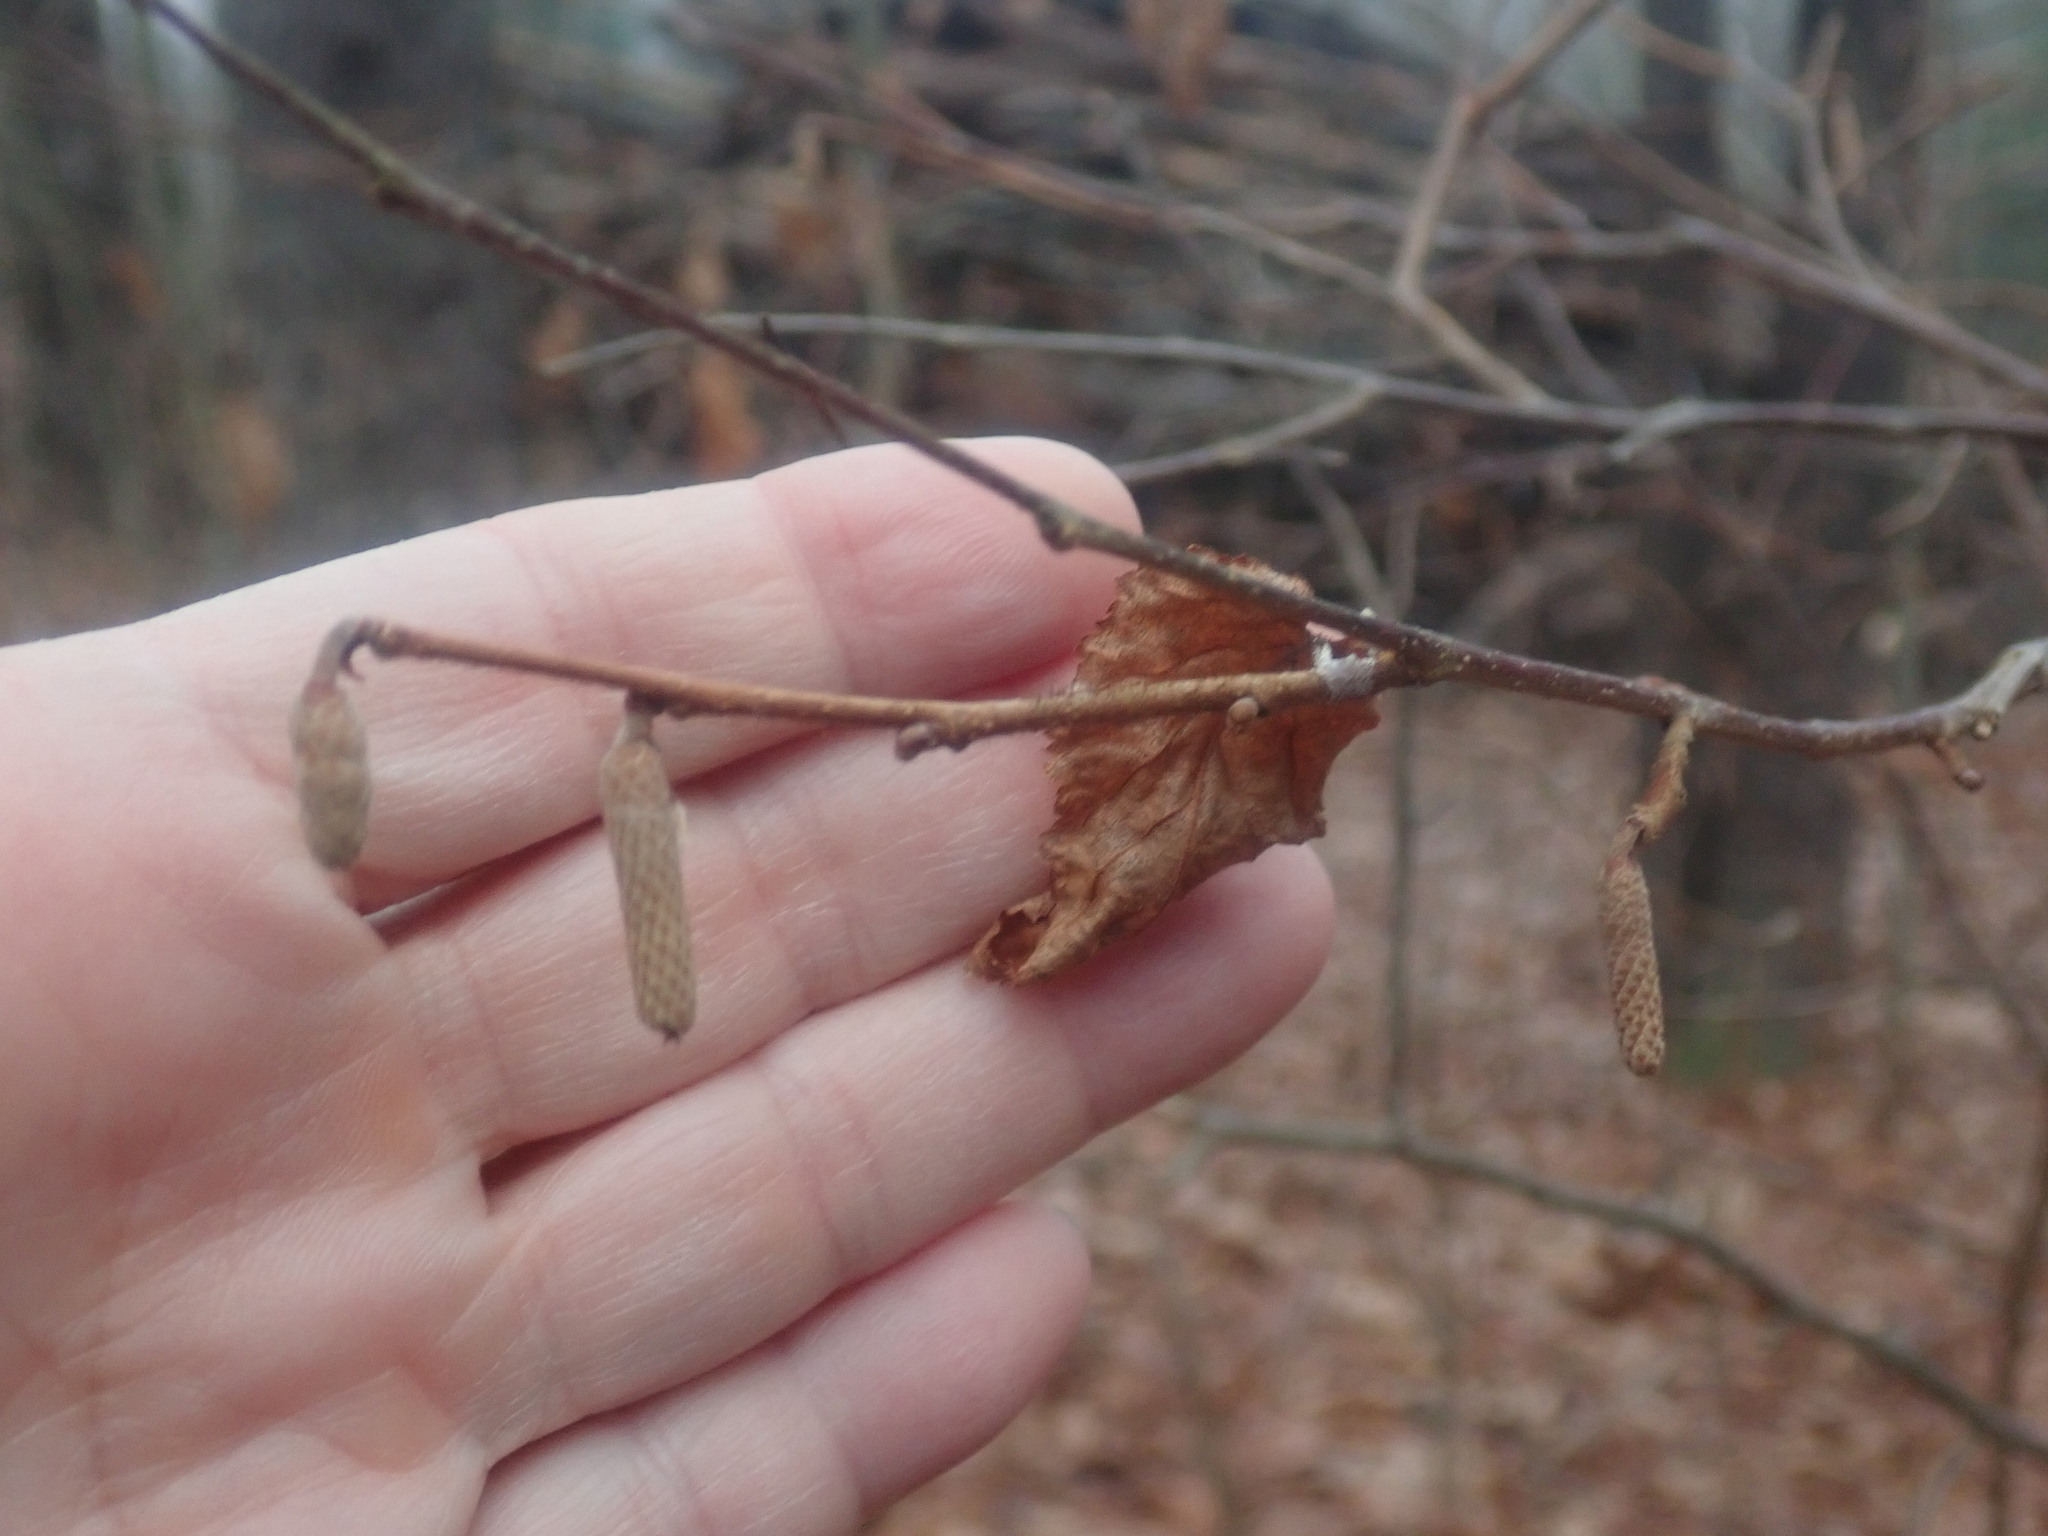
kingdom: Plantae
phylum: Tracheophyta
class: Magnoliopsida
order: Fagales
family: Betulaceae
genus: Corylus
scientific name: Corylus americana
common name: American hazel
